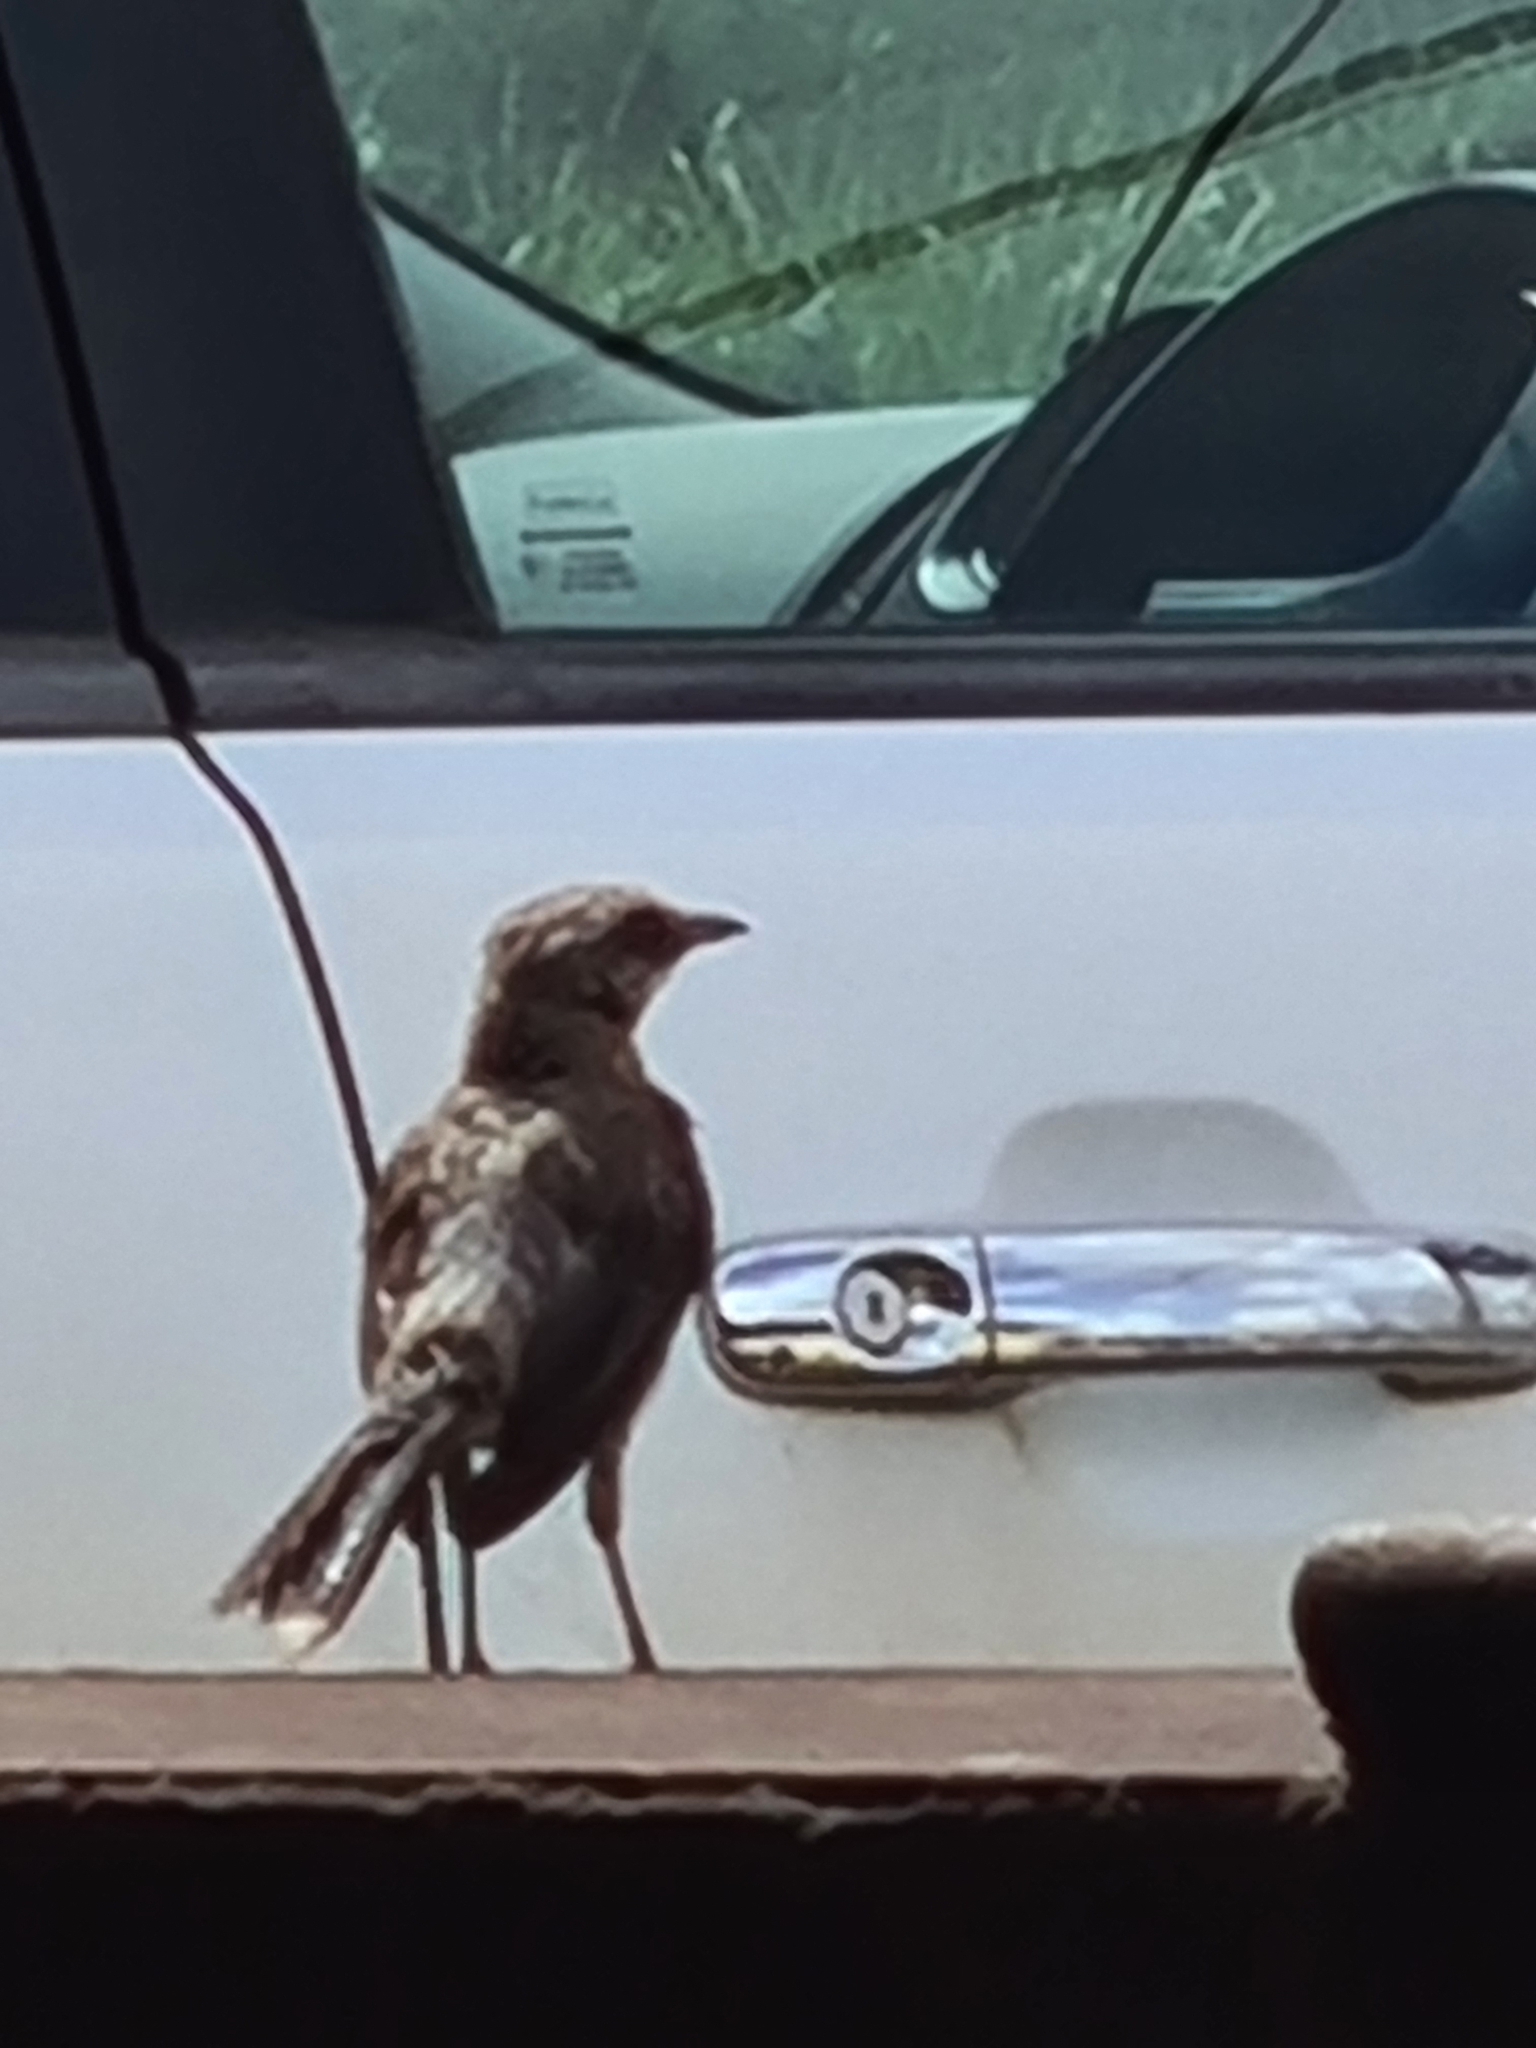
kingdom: Animalia
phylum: Chordata
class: Aves
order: Passeriformes
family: Mimidae
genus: Mimus
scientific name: Mimus gilvus
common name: Tropical mockingbird
